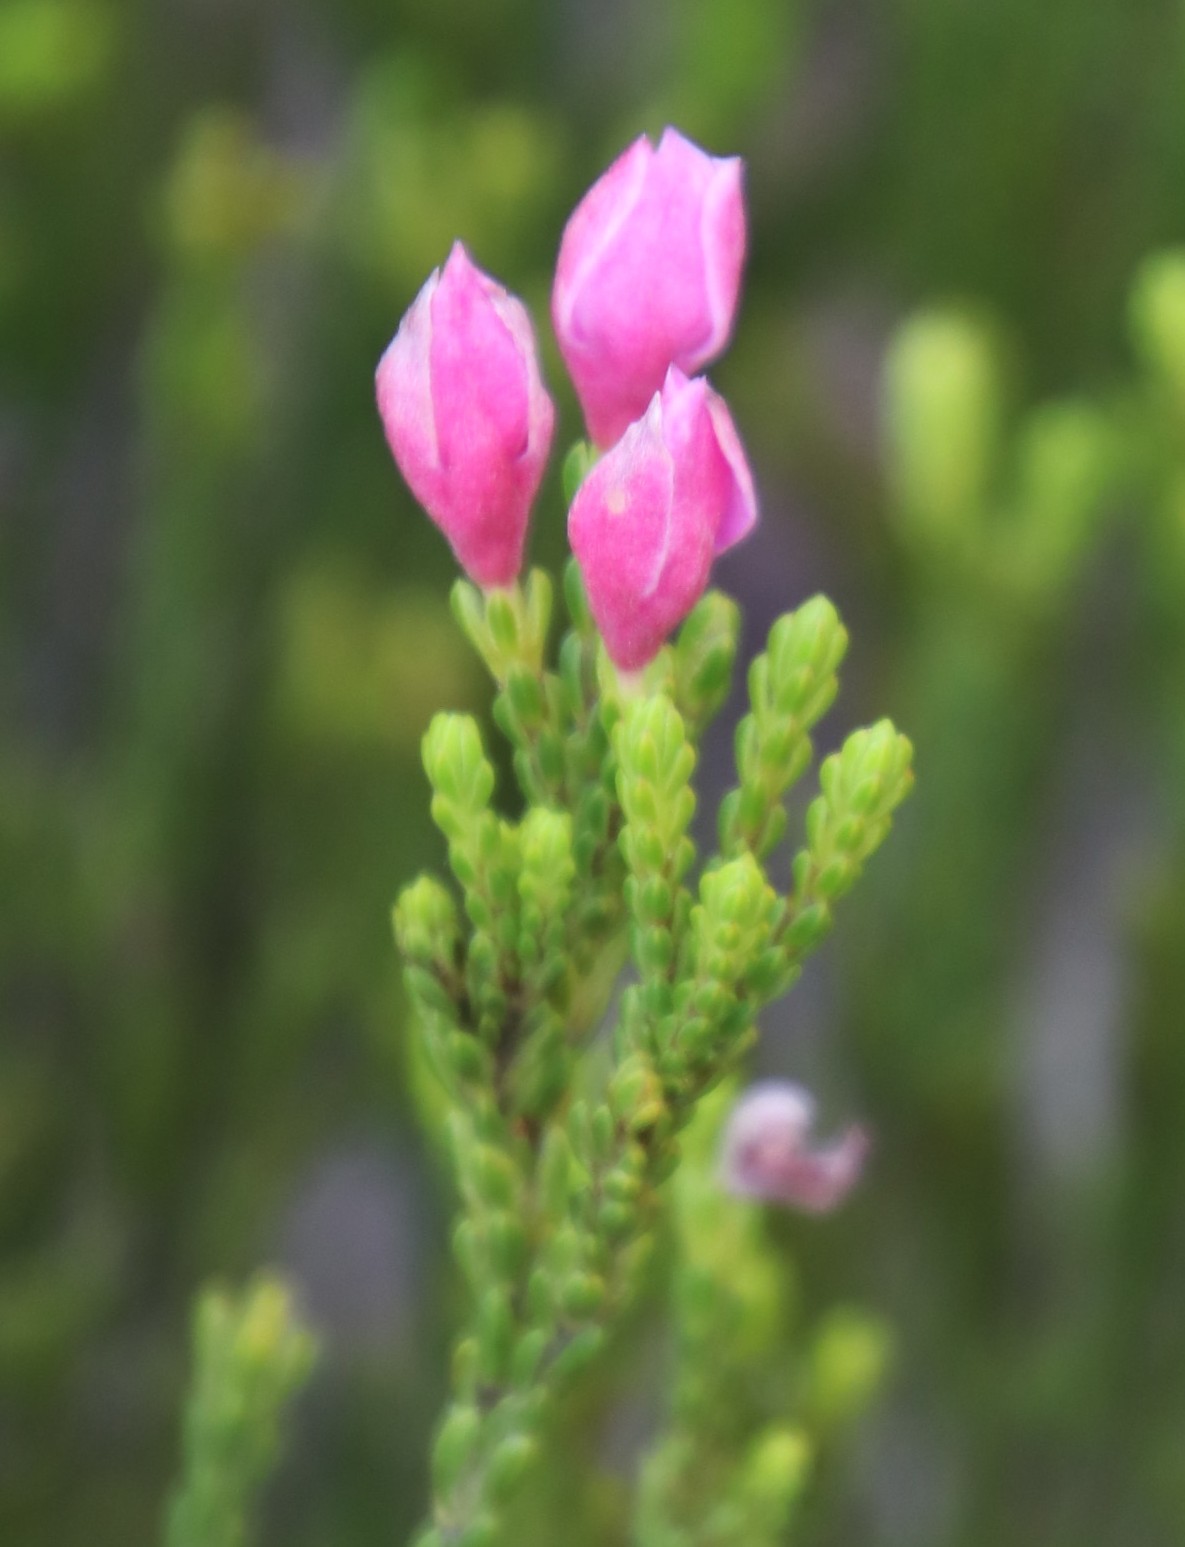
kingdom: Plantae
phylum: Tracheophyta
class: Magnoliopsida
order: Malvales
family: Thymelaeaceae
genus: Lachnaea
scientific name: Lachnaea grandiflora
